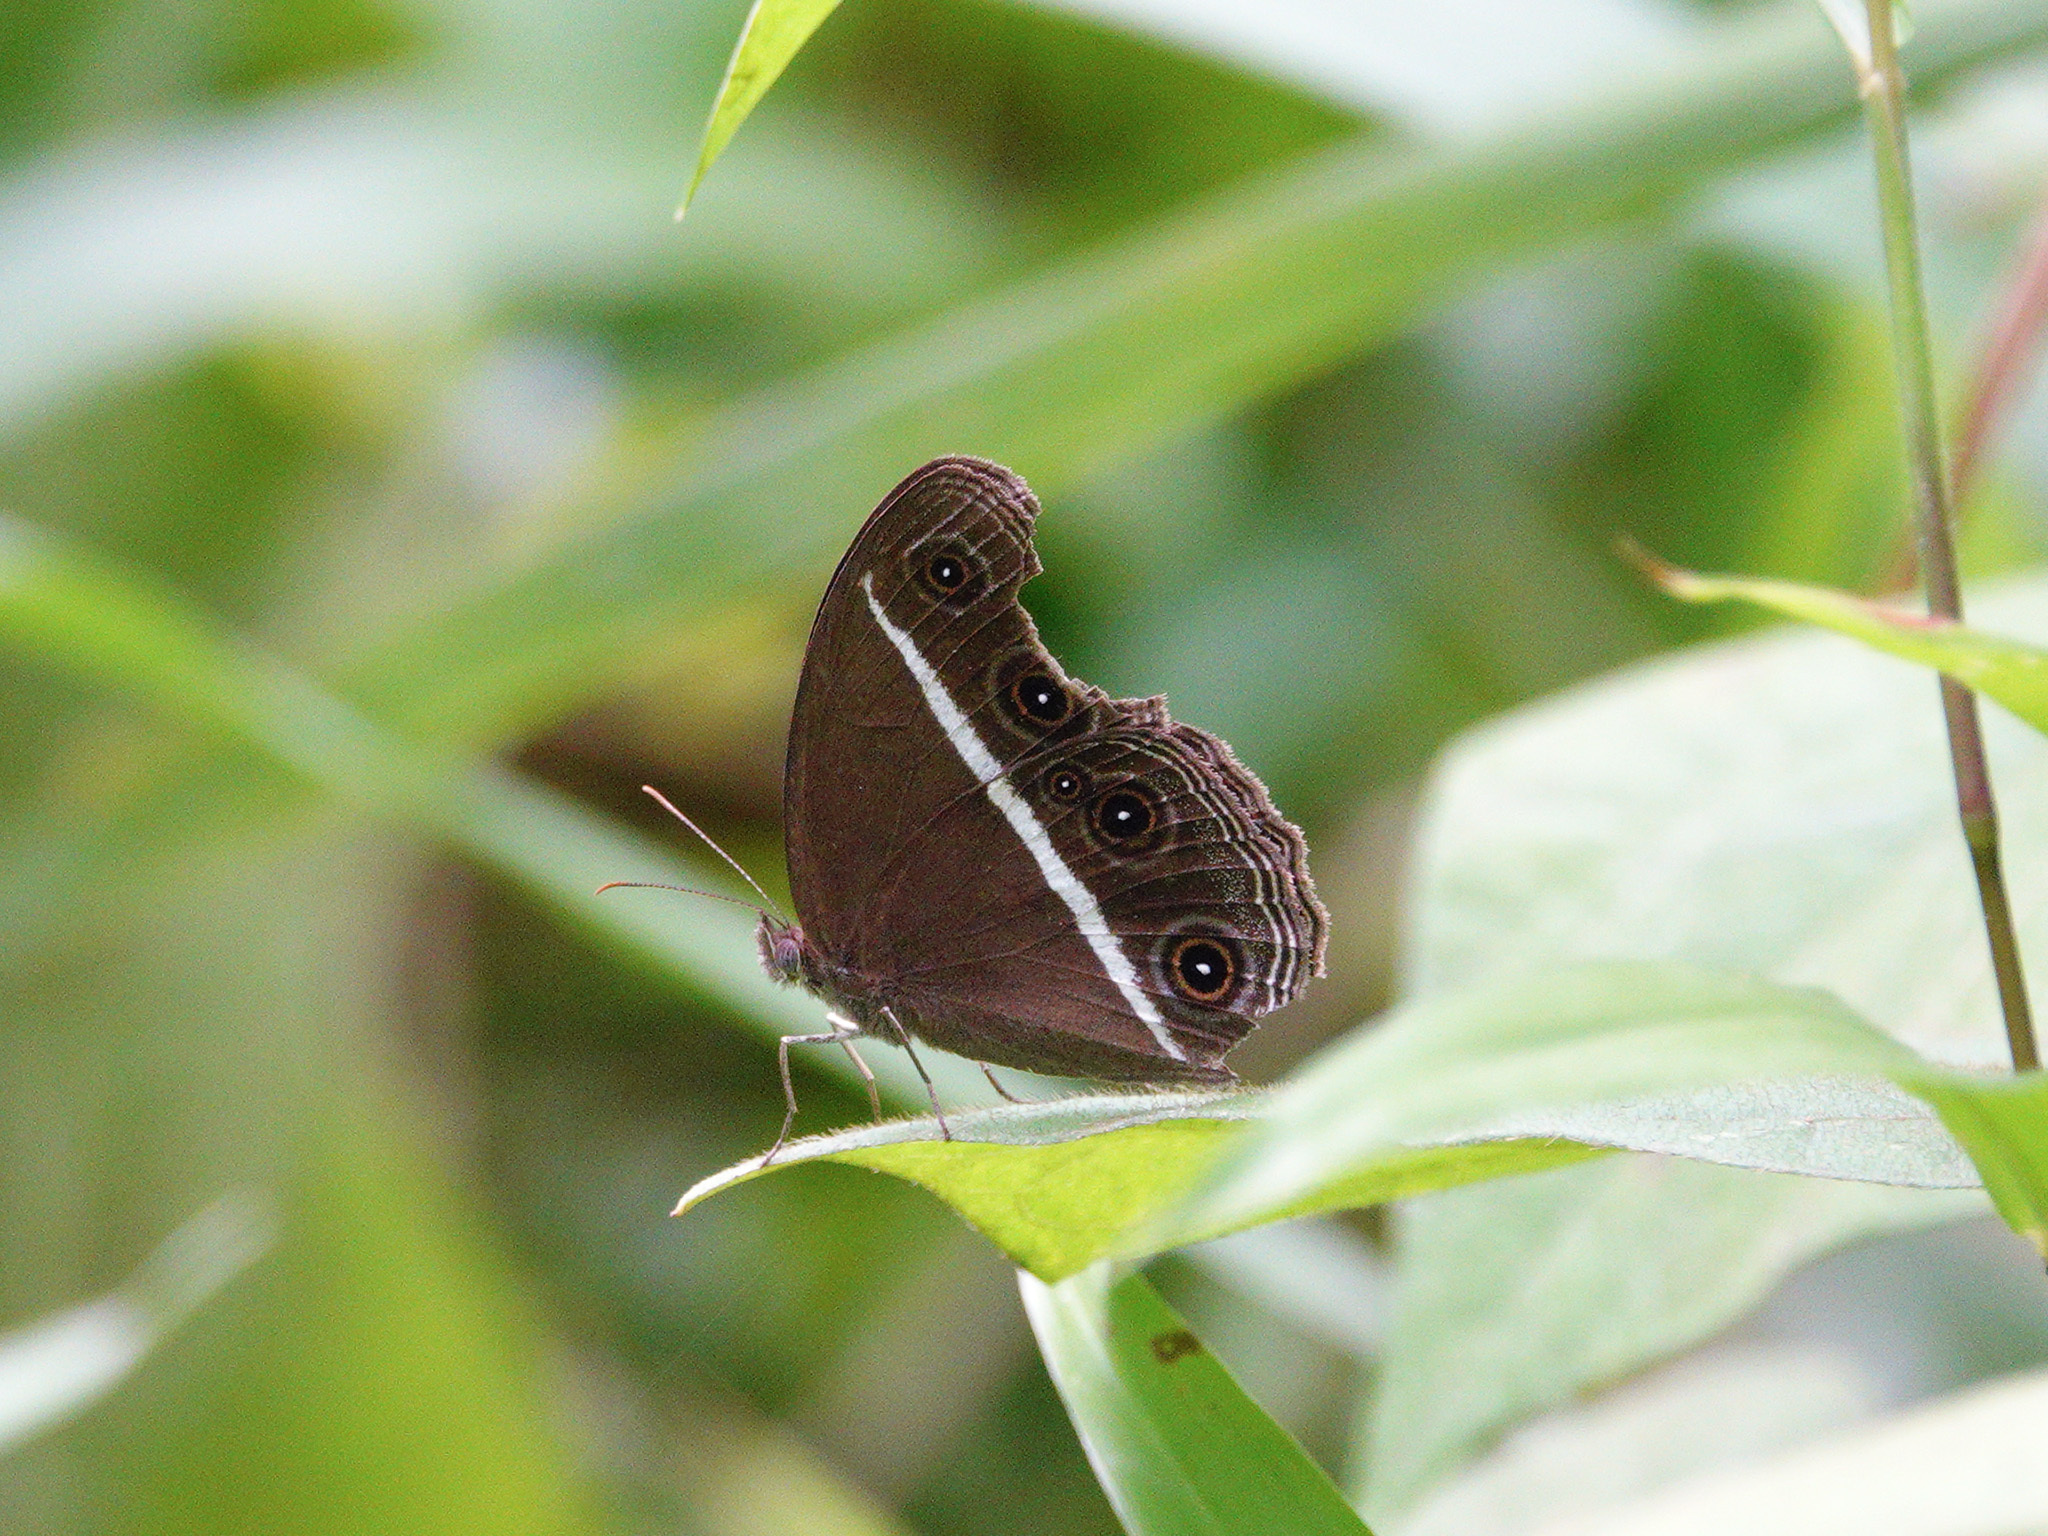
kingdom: Animalia
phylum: Arthropoda
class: Insecta
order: Lepidoptera
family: Nymphalidae
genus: Orsotriaena
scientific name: Orsotriaena medus
